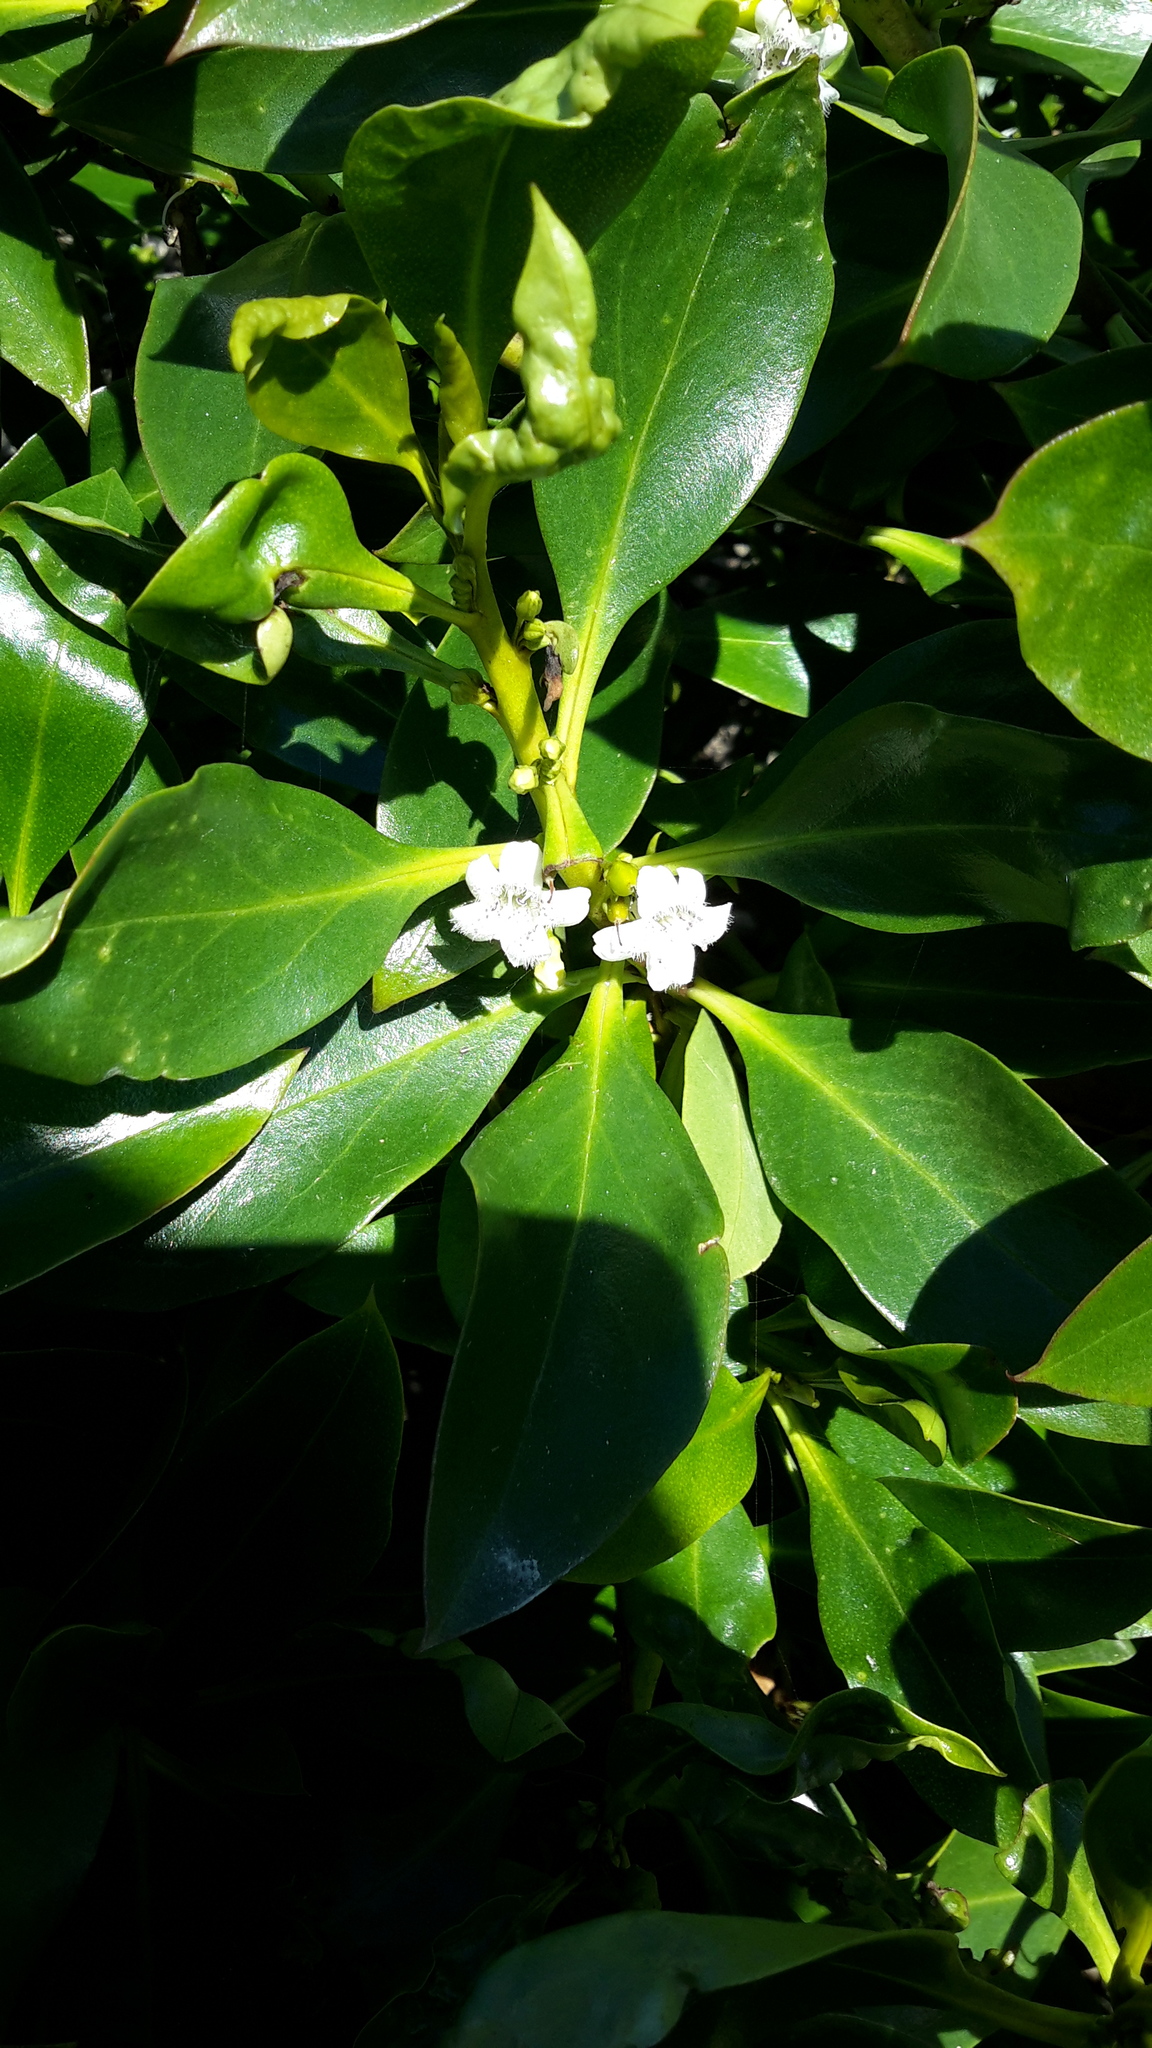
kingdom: Plantae
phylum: Tracheophyta
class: Magnoliopsida
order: Lamiales
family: Scrophulariaceae
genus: Myoporum
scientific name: Myoporum laetum
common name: Ngaio tree
